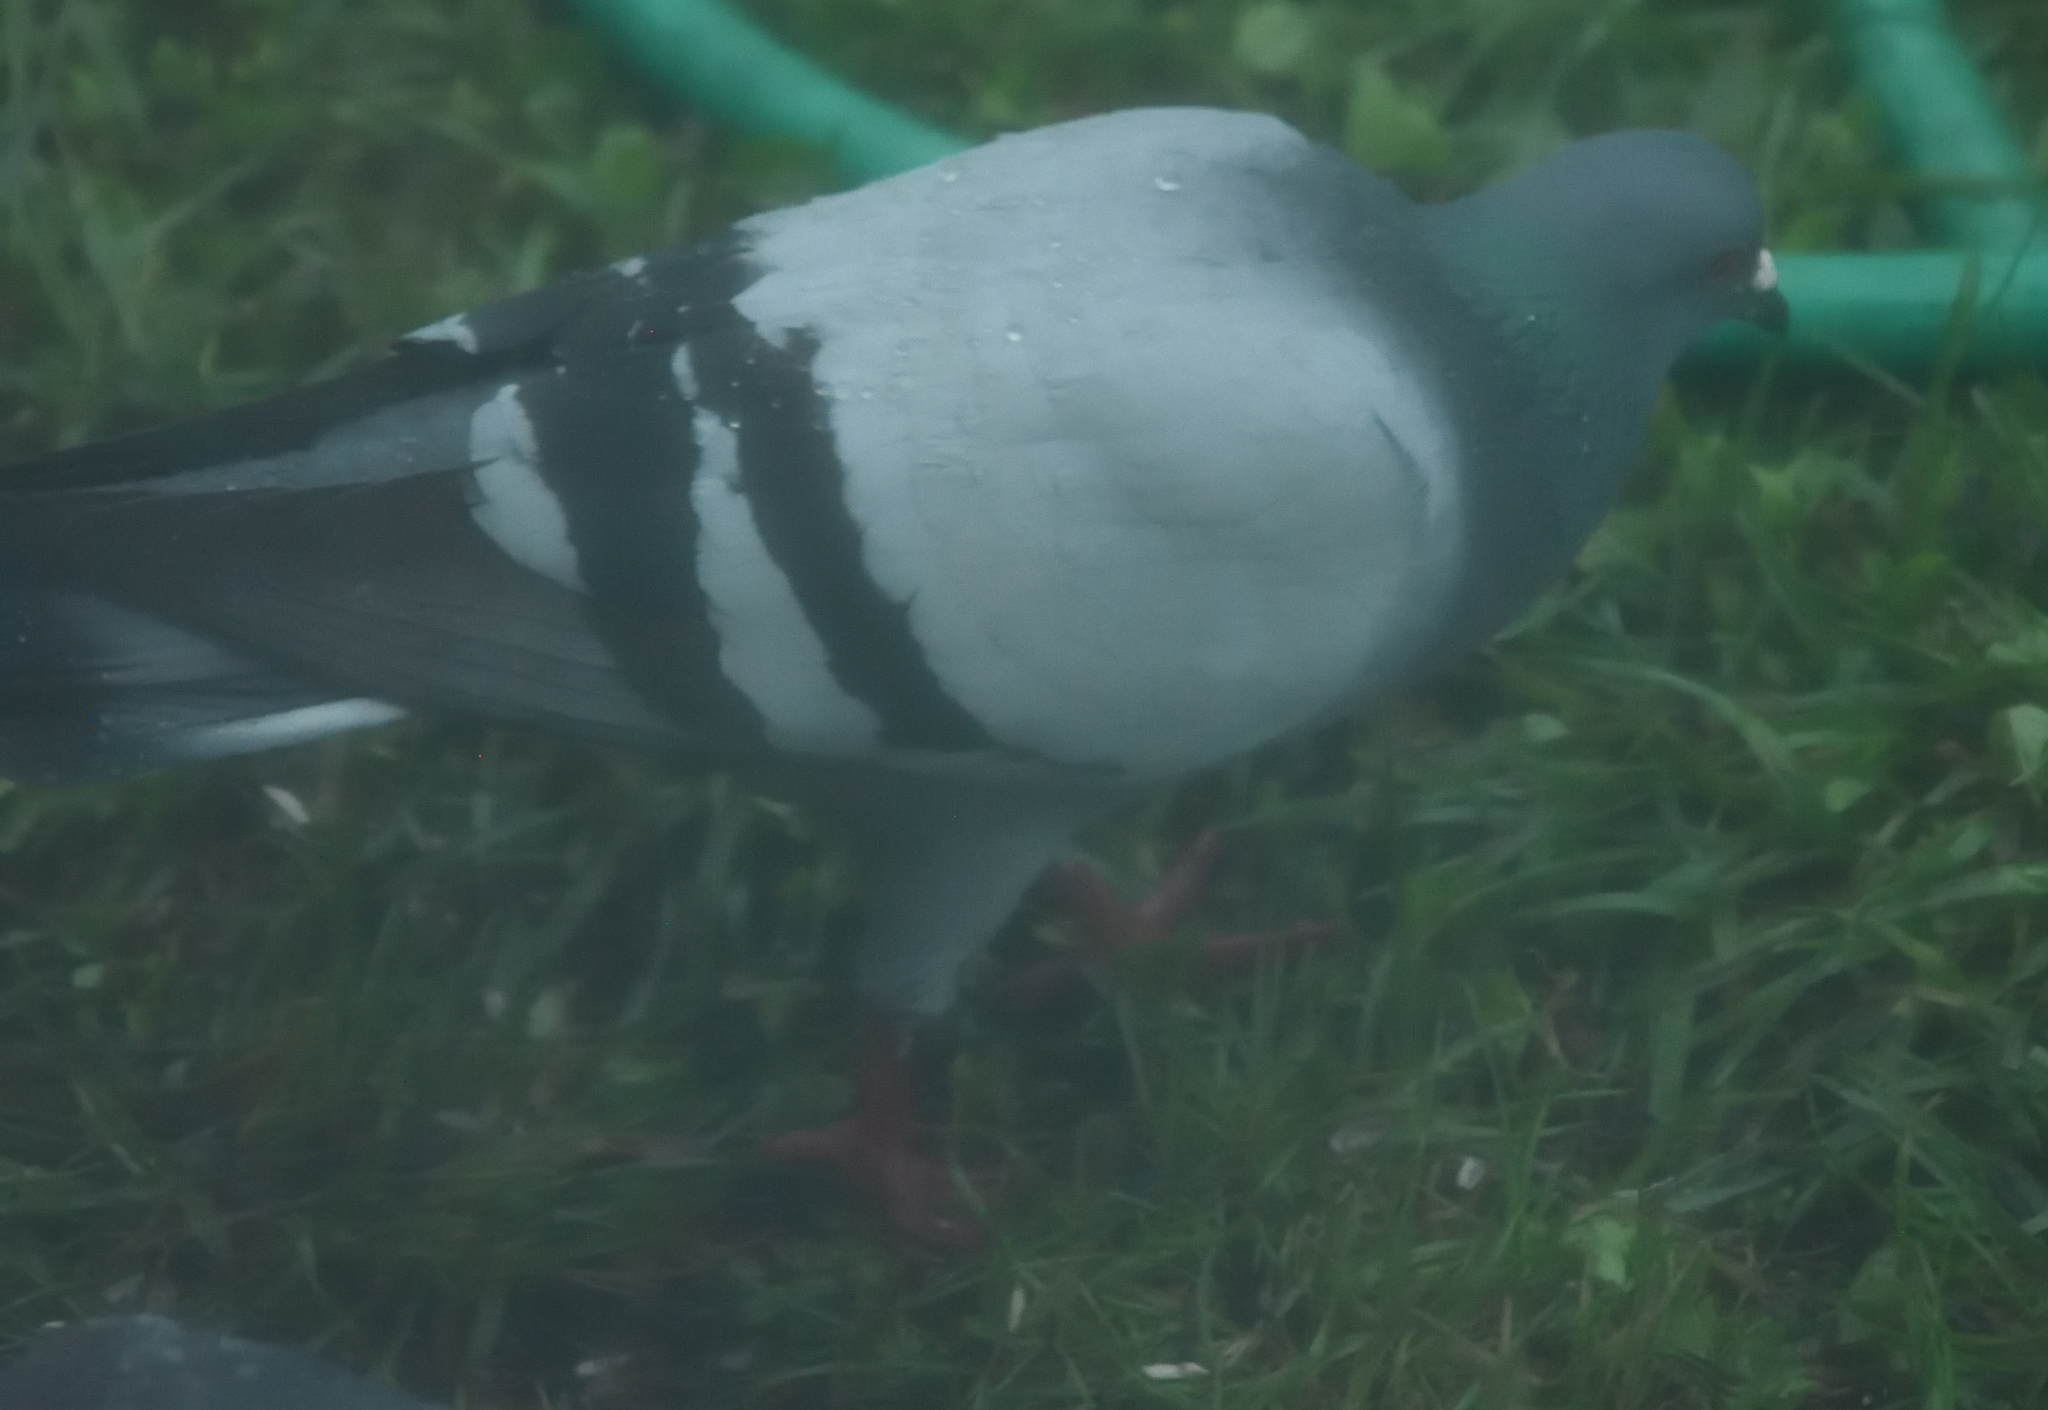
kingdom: Animalia
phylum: Chordata
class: Aves
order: Columbiformes
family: Columbidae
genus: Columba
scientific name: Columba livia
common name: Rock pigeon
